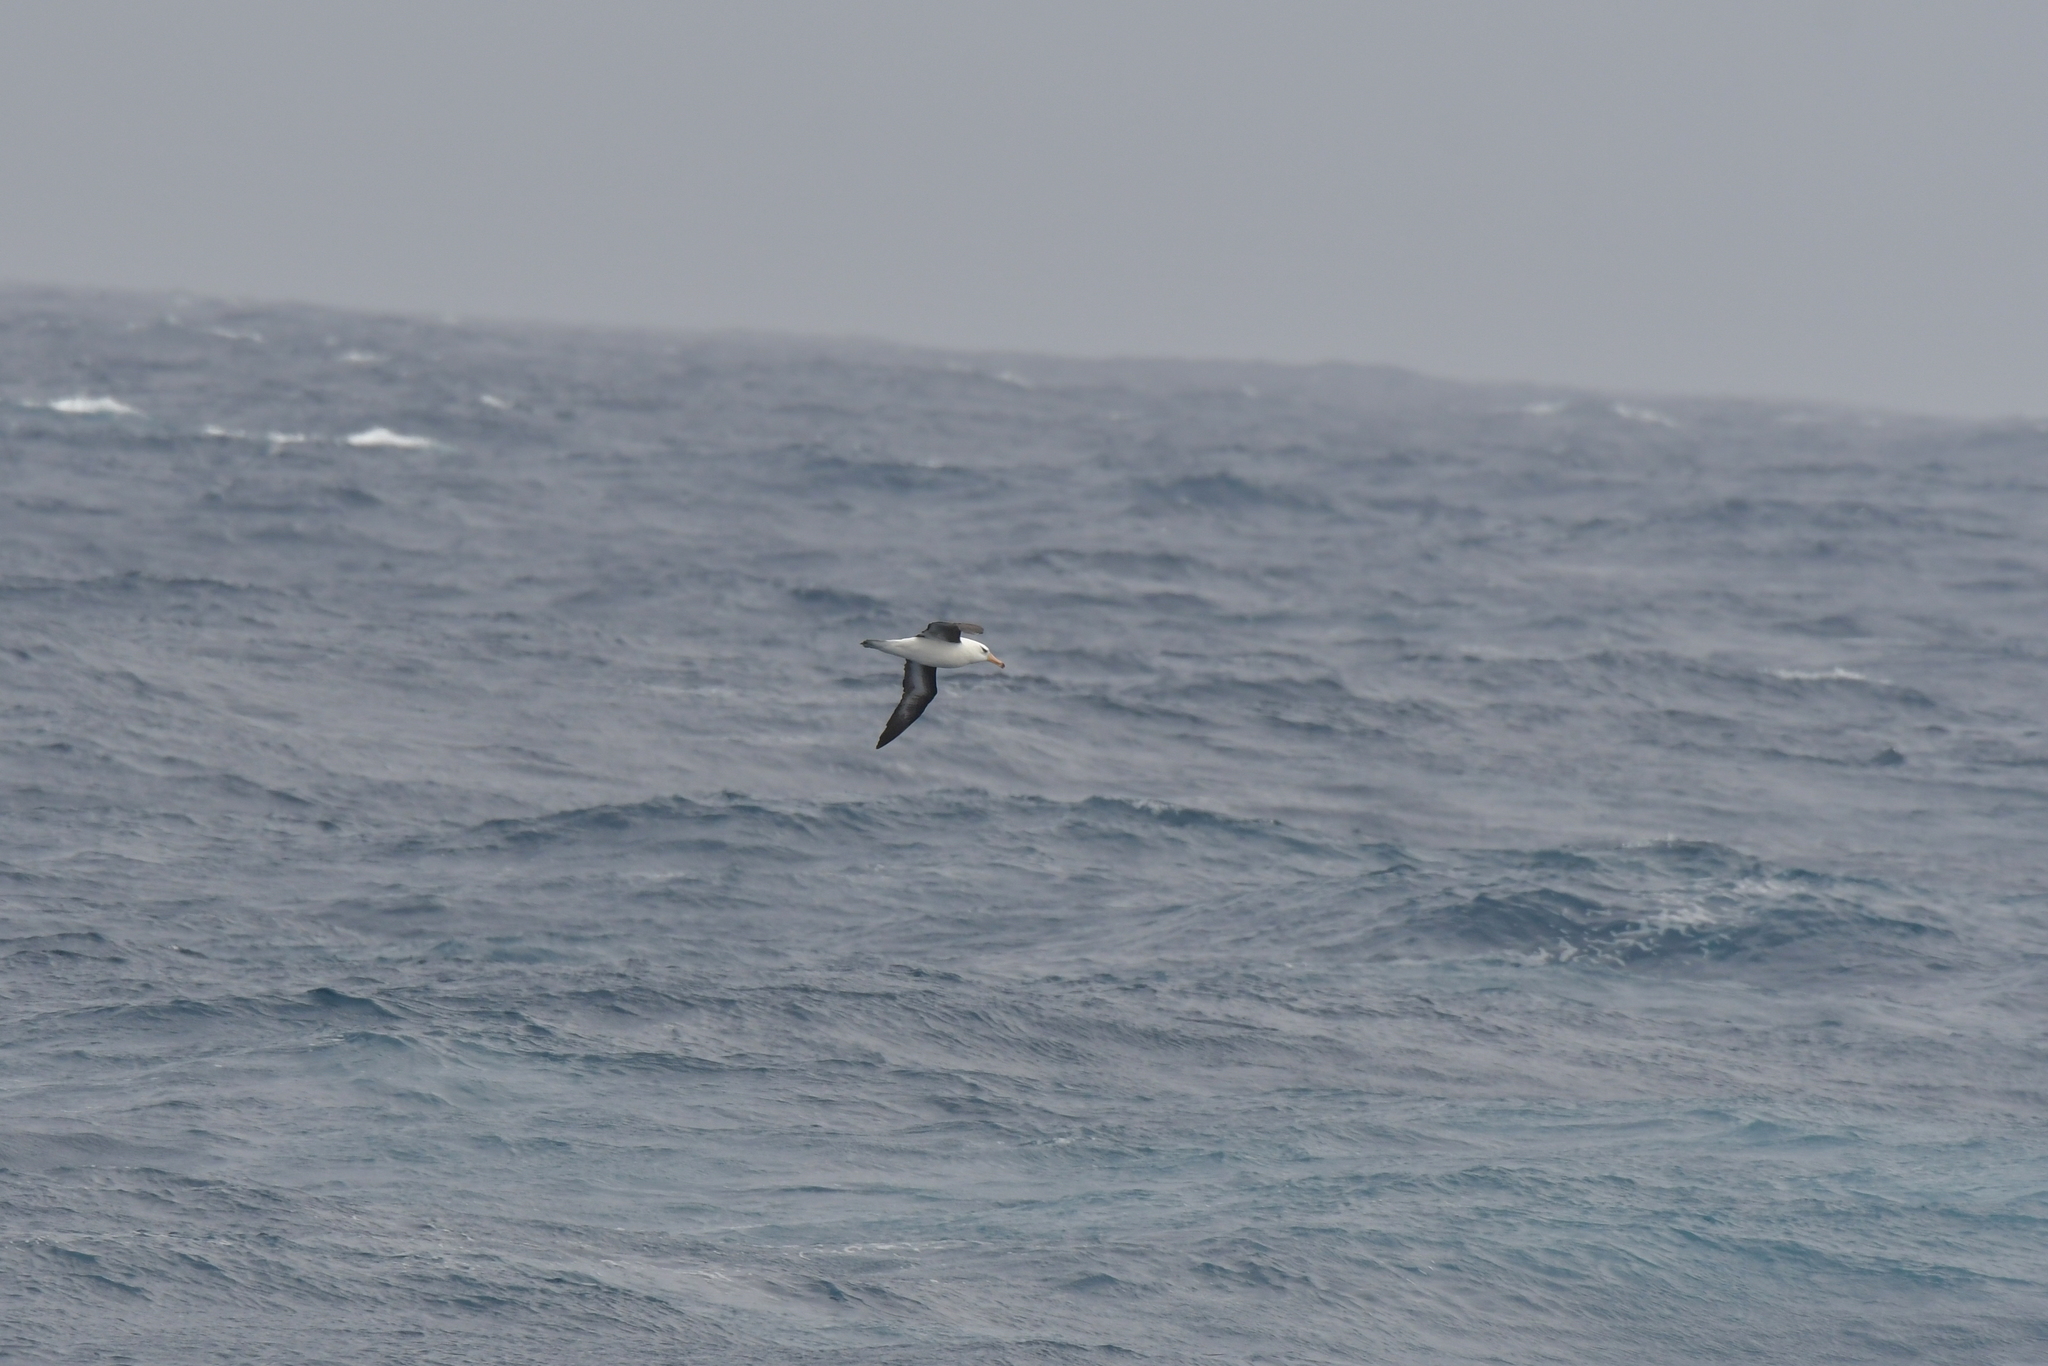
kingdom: Animalia
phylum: Chordata
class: Aves
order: Procellariiformes
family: Diomedeidae
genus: Thalassarche
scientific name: Thalassarche impavida
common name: Campbell albatross
